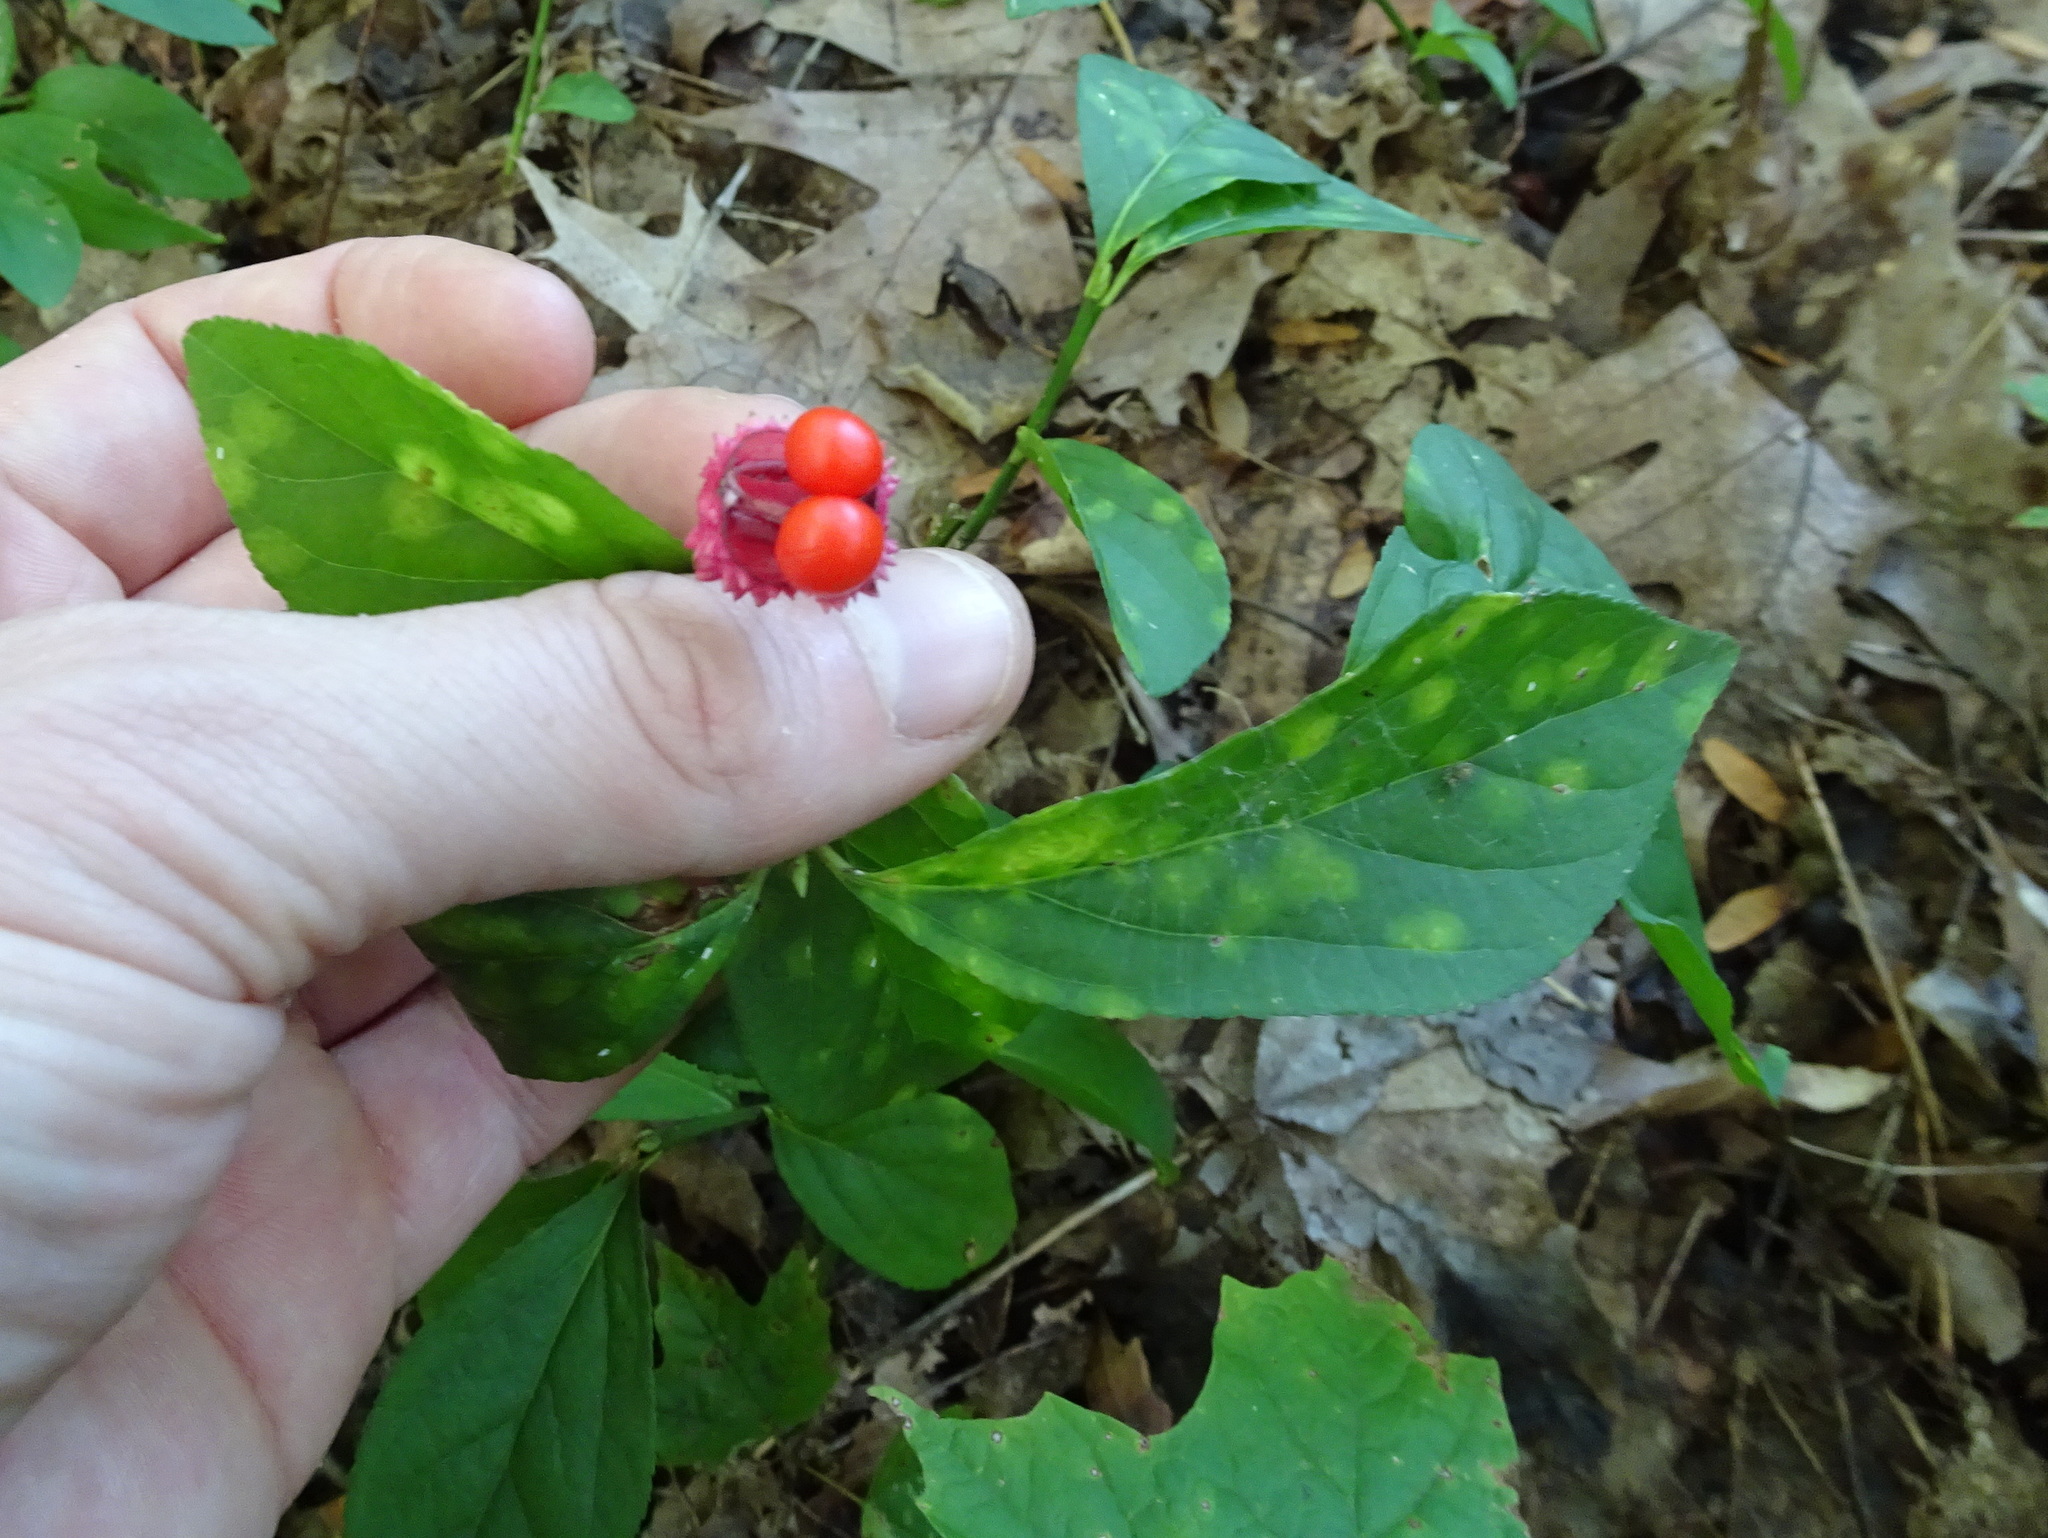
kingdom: Plantae
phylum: Tracheophyta
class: Magnoliopsida
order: Celastrales
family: Celastraceae
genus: Euonymus
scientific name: Euonymus obovatus
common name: Running strawberry-bush
